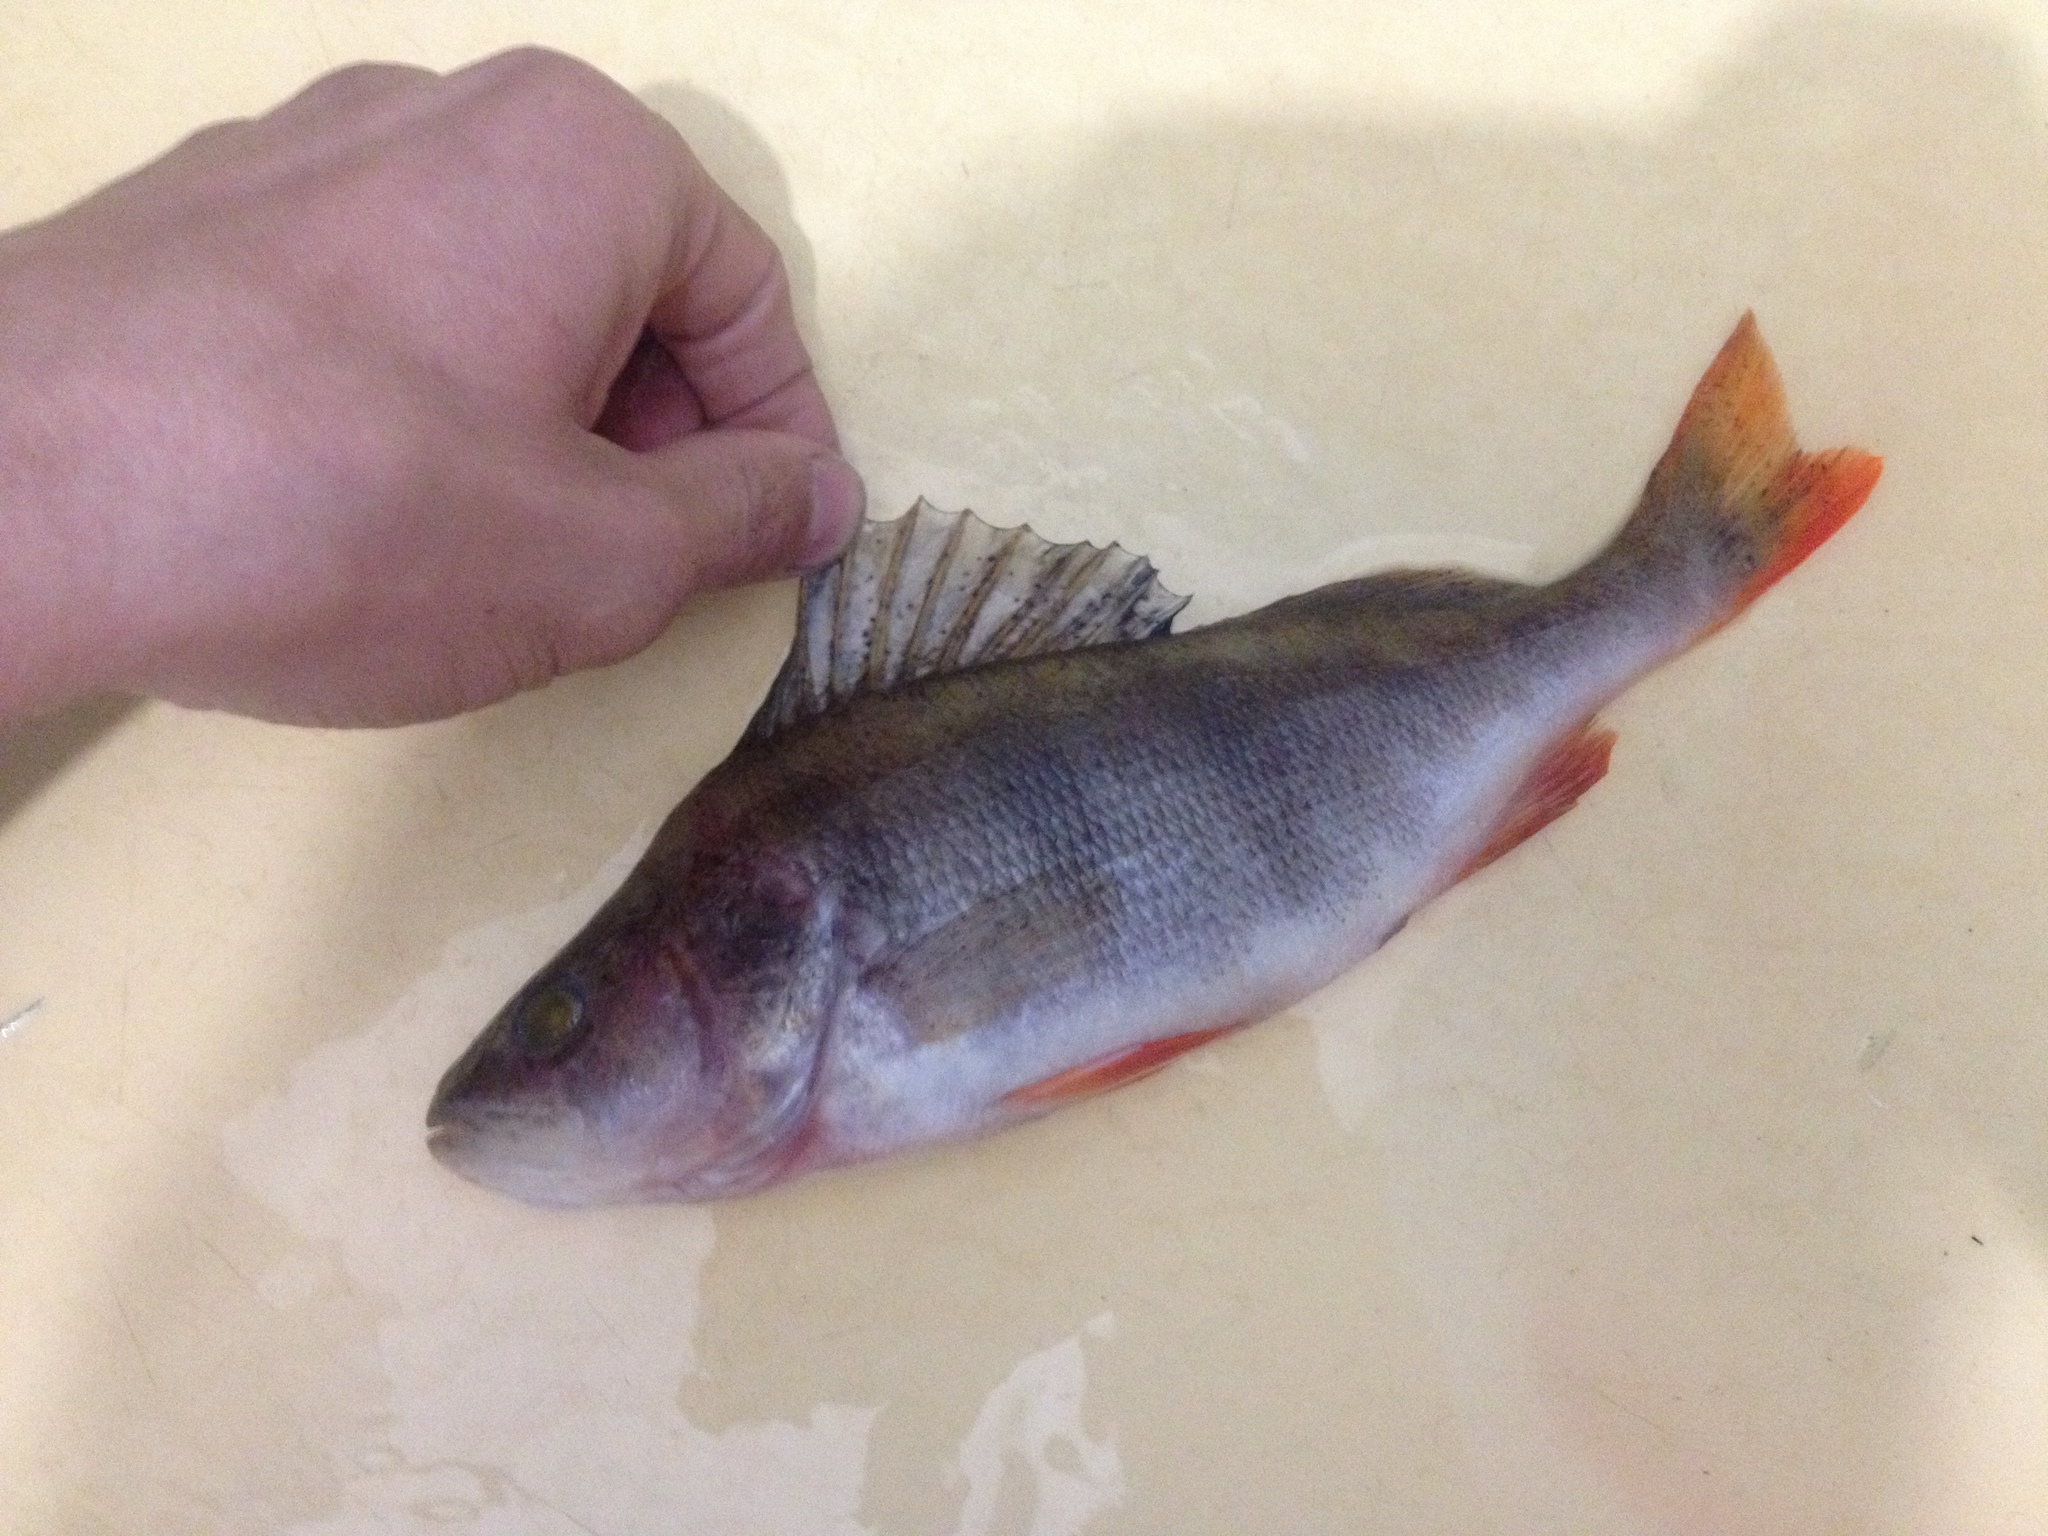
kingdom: Animalia
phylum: Chordata
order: Perciformes
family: Percidae
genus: Perca
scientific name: Perca fluviatilis
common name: Perch
